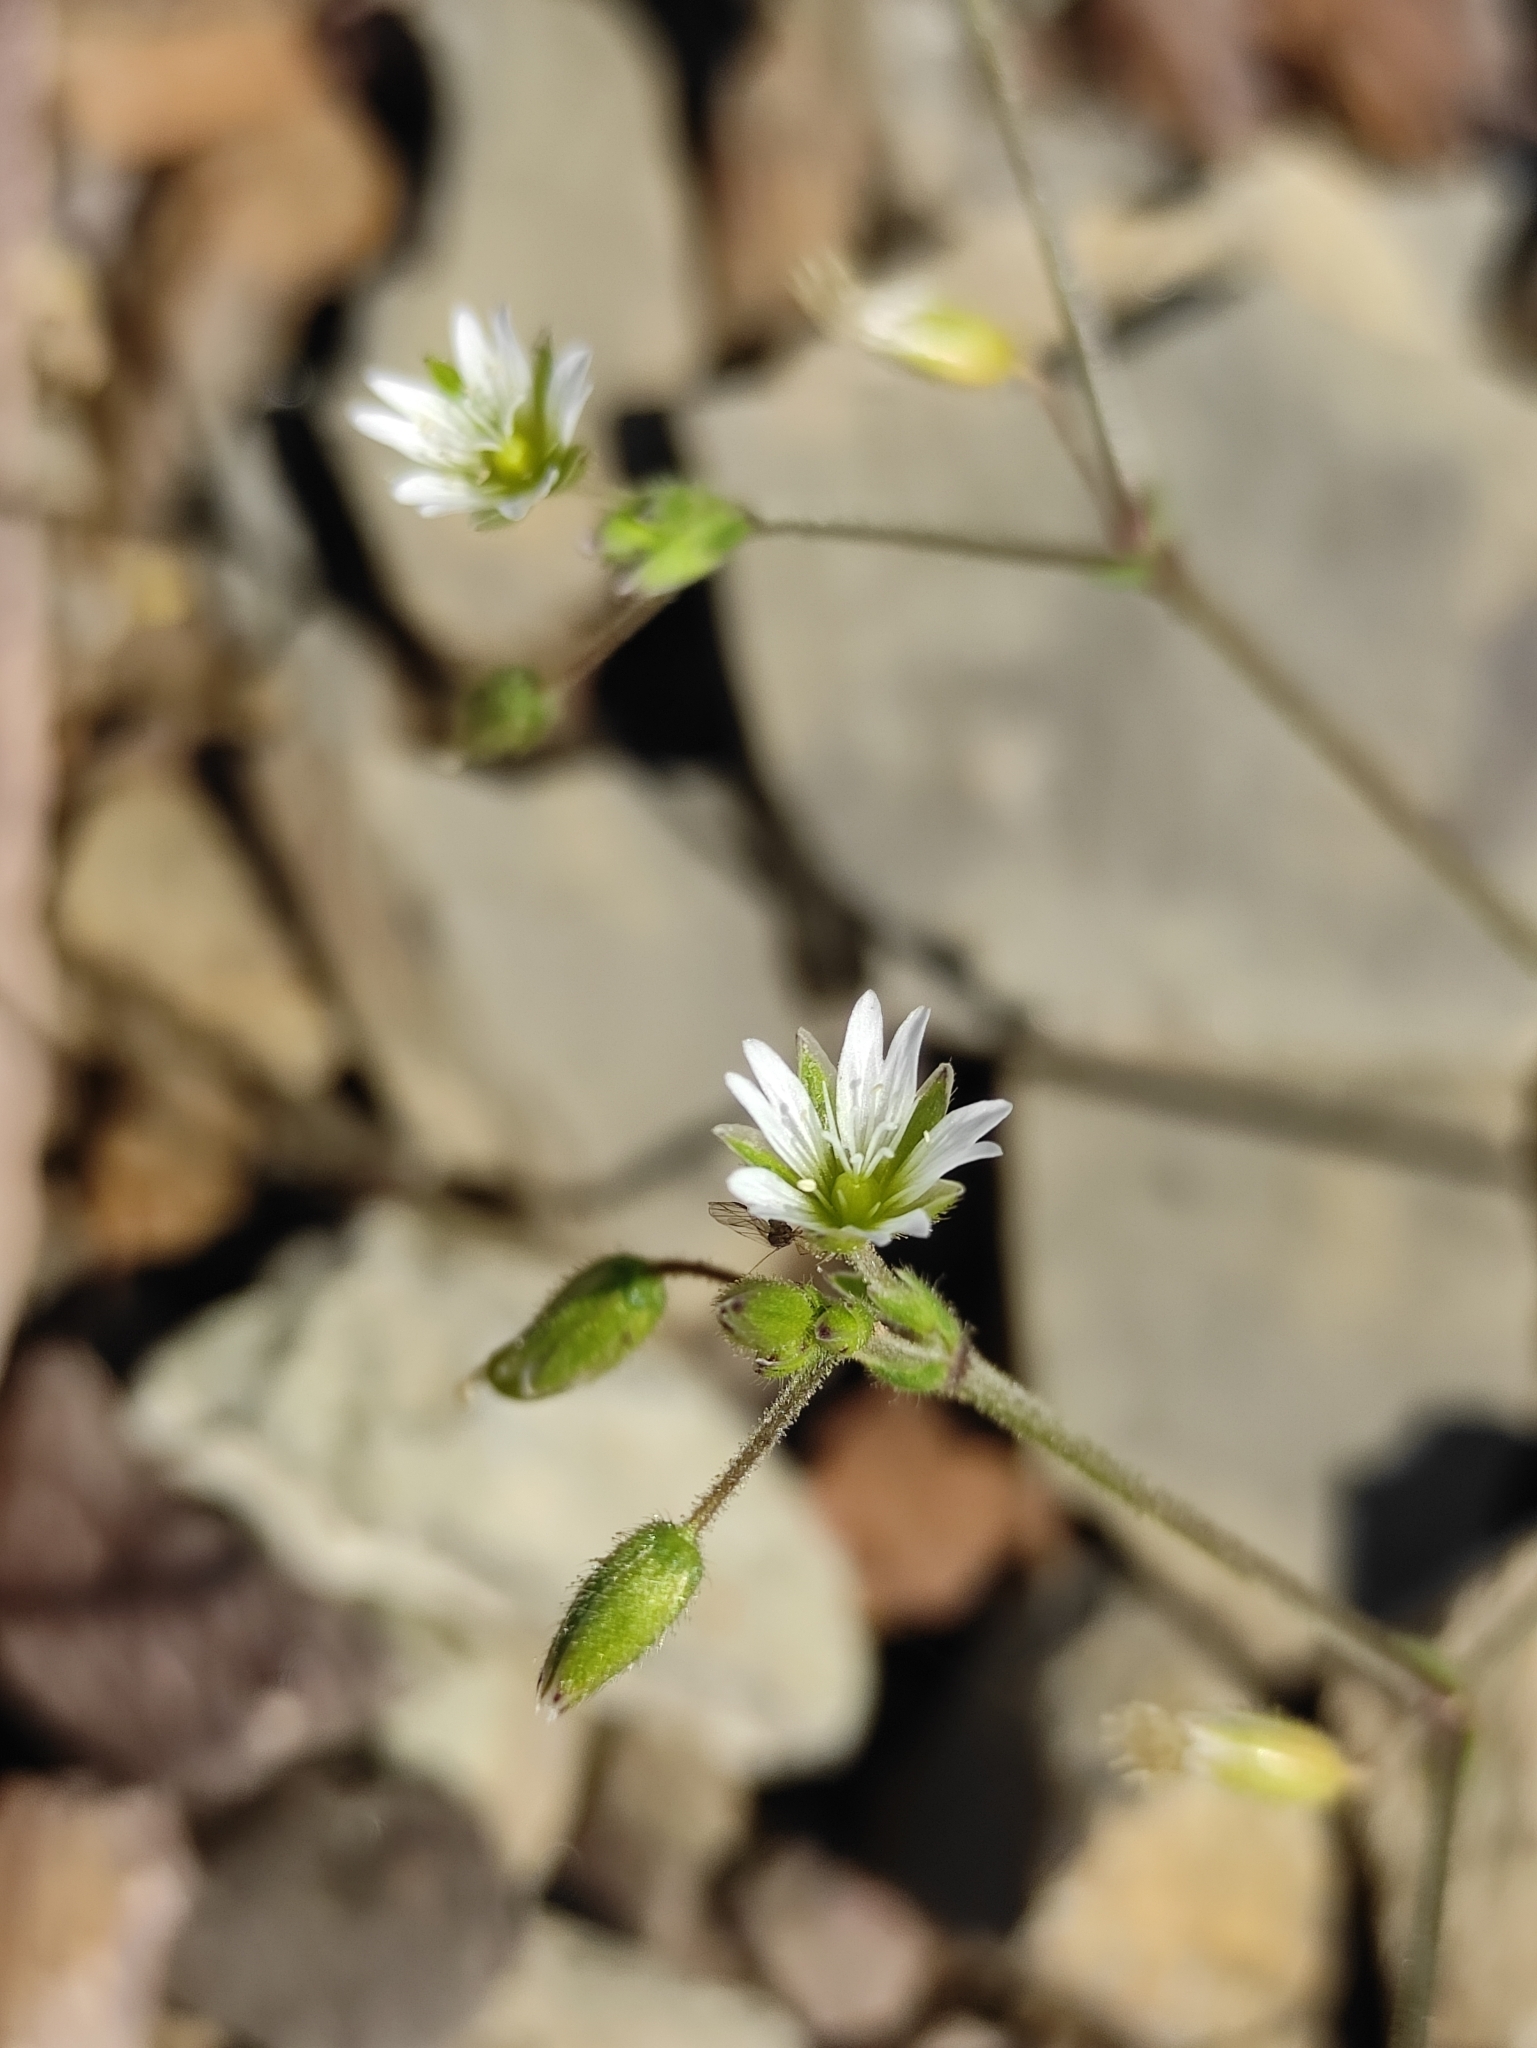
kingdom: Plantae
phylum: Tracheophyta
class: Magnoliopsida
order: Caryophyllales
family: Caryophyllaceae
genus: Cerastium
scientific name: Cerastium holosteoides
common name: Big chickweed
